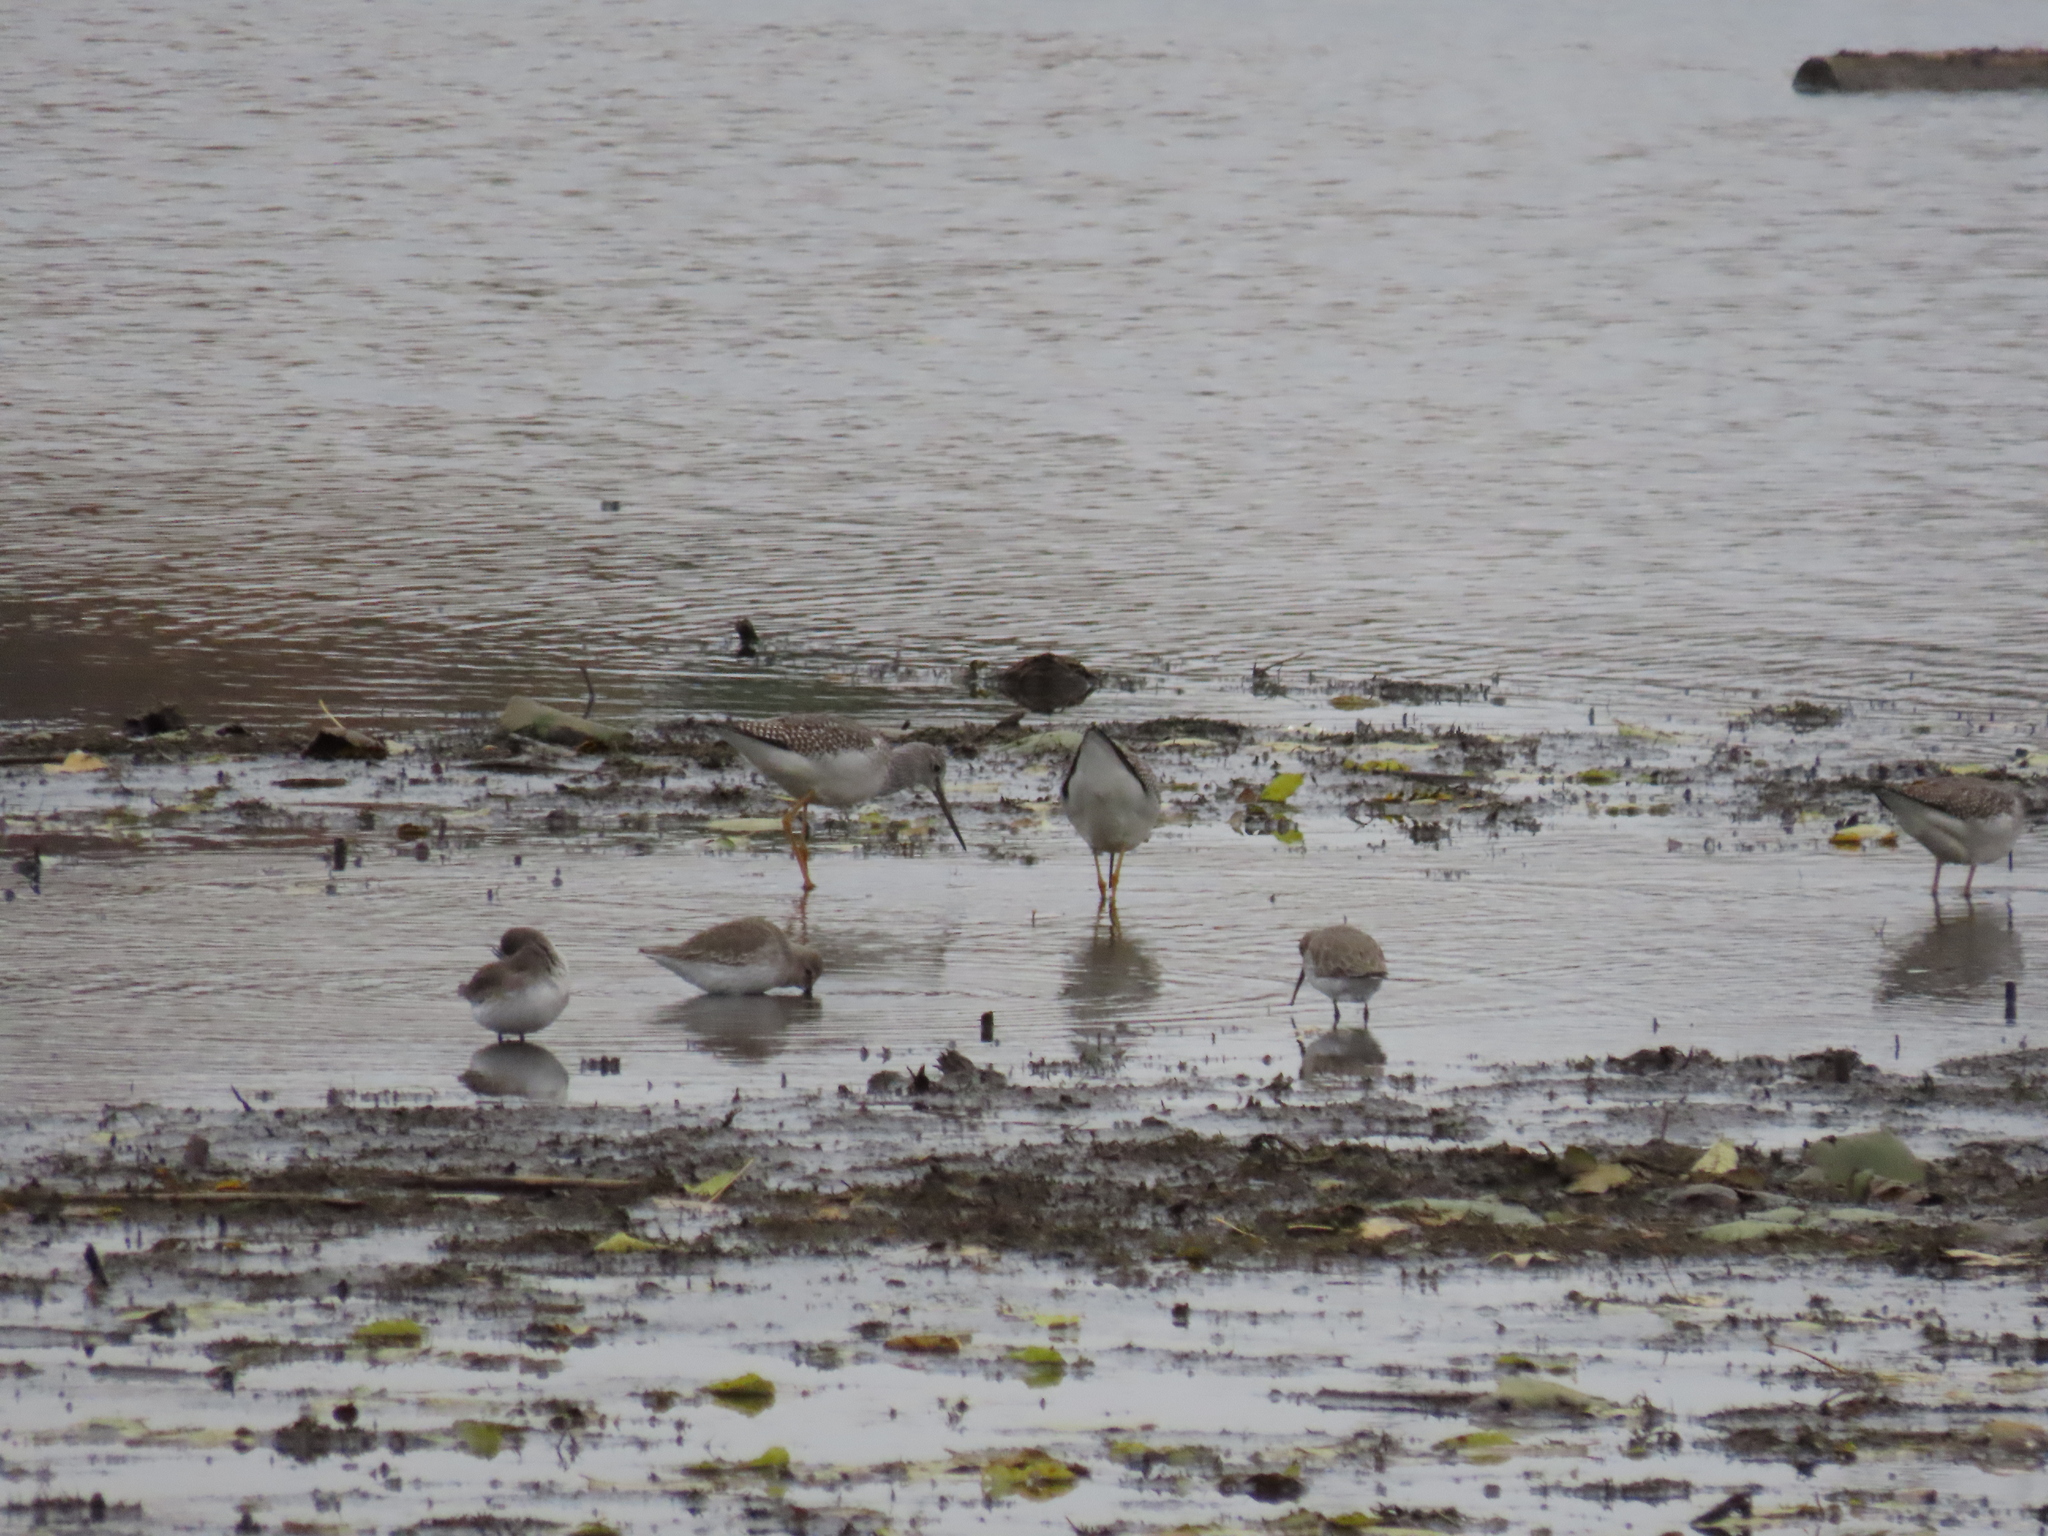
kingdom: Animalia
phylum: Chordata
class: Aves
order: Charadriiformes
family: Scolopacidae
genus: Calidris
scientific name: Calidris alpina
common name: Dunlin
